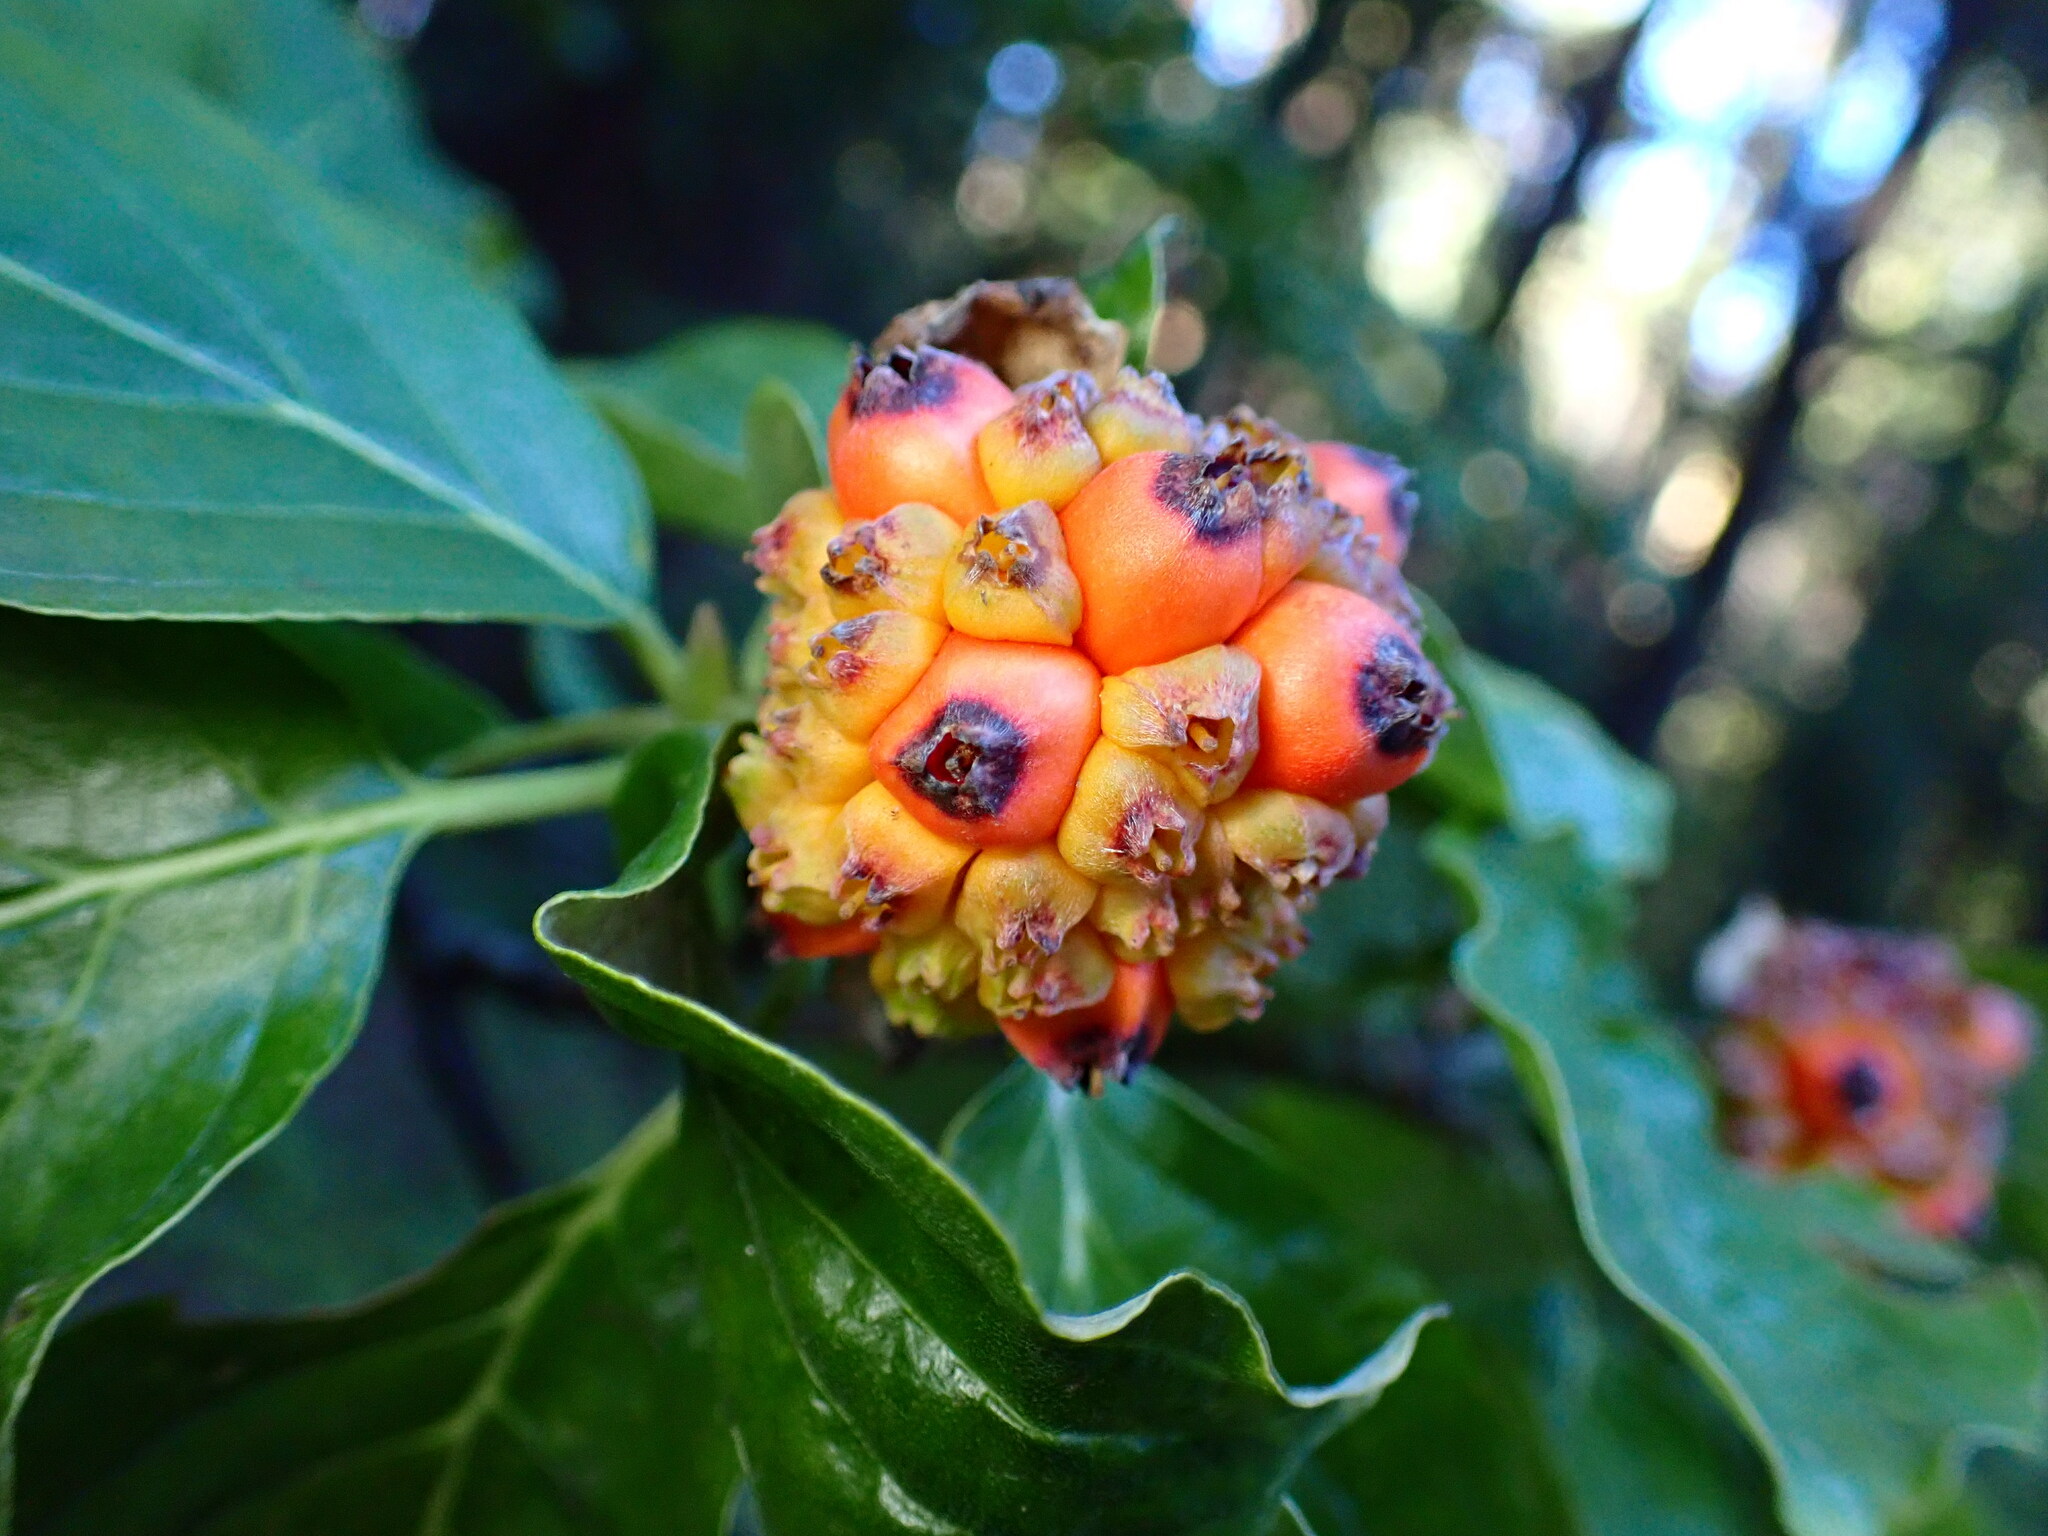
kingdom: Plantae
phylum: Tracheophyta
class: Magnoliopsida
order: Cornales
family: Cornaceae
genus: Cornus
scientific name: Cornus nuttallii
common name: Pacific dogwood
